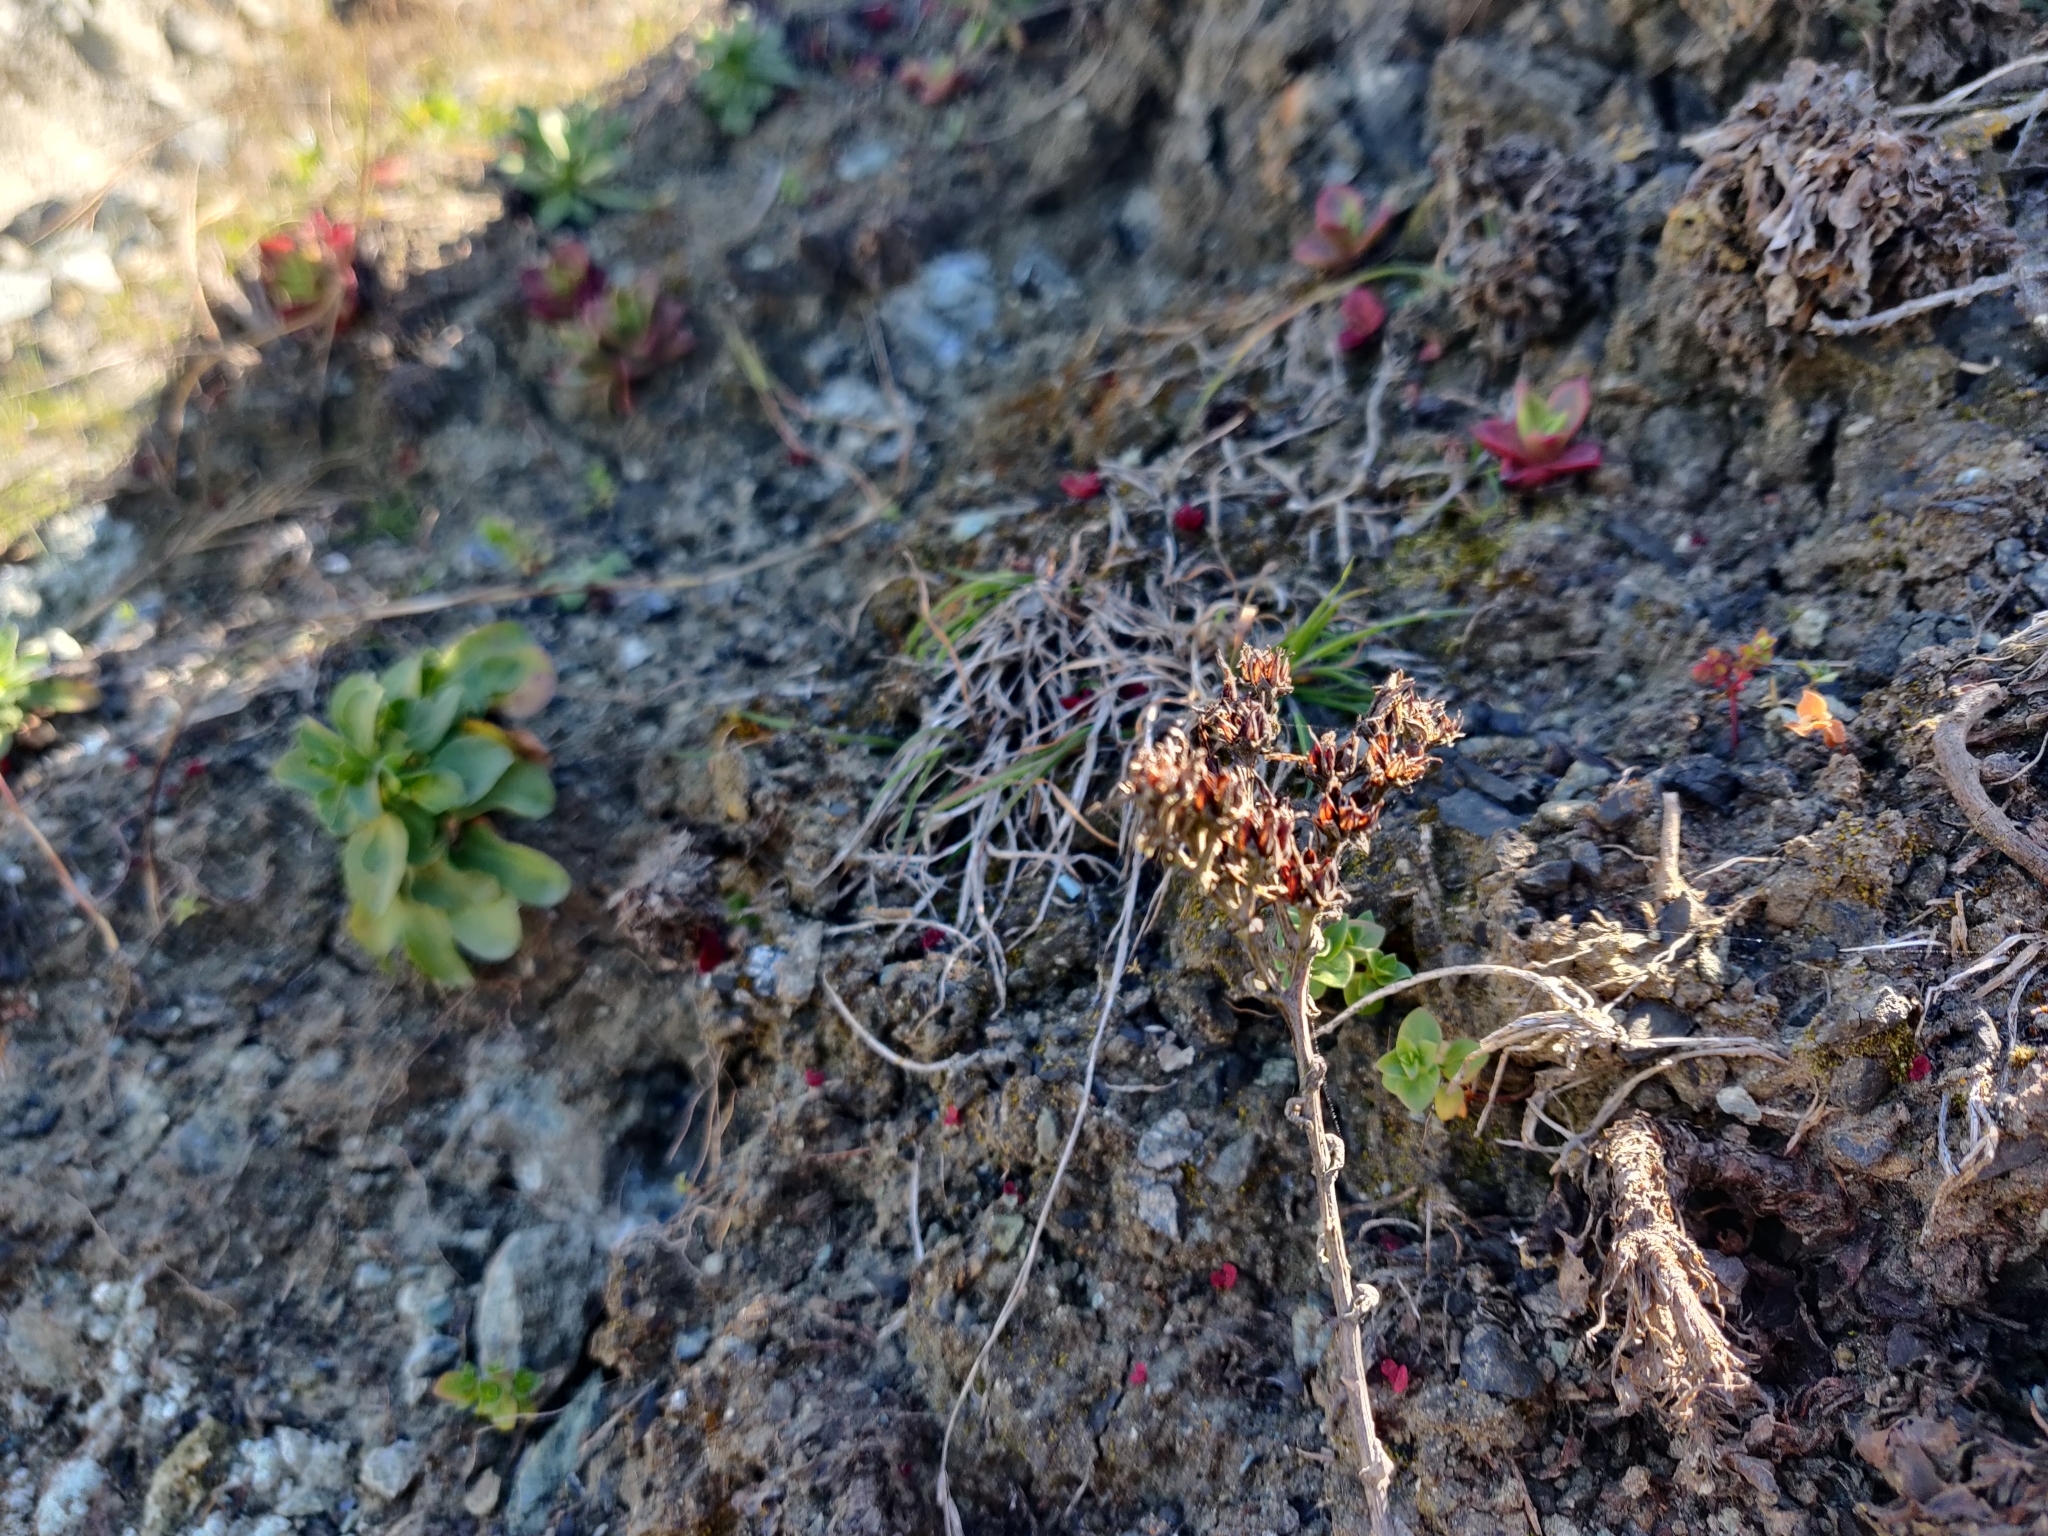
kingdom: Plantae
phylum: Tracheophyta
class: Magnoliopsida
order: Saxifragales
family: Crassulaceae
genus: Dudleya
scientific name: Dudleya farinosa
